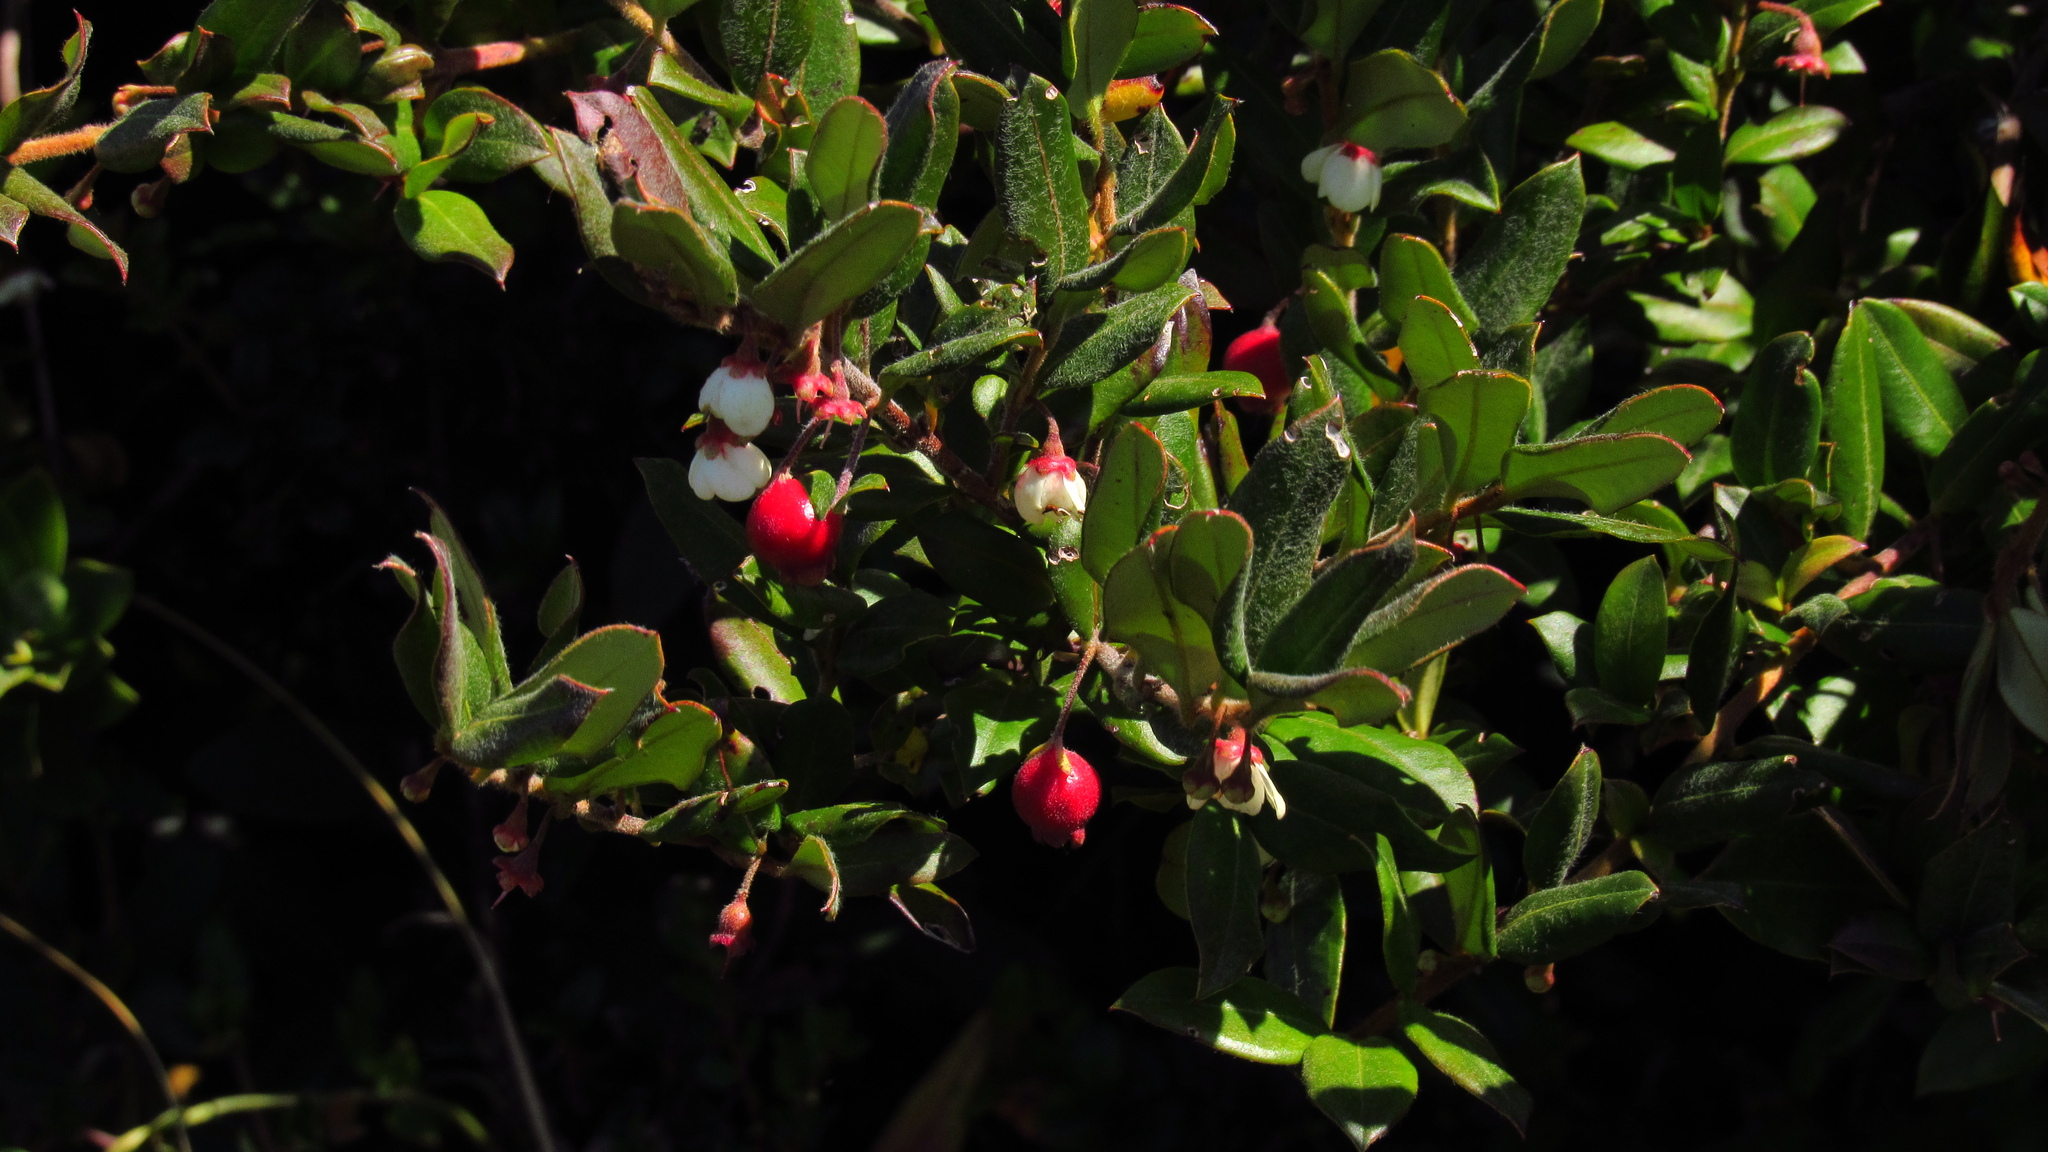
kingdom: Plantae
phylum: Tracheophyta
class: Magnoliopsida
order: Myrtales
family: Myrtaceae
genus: Ugni
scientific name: Ugni candollei
